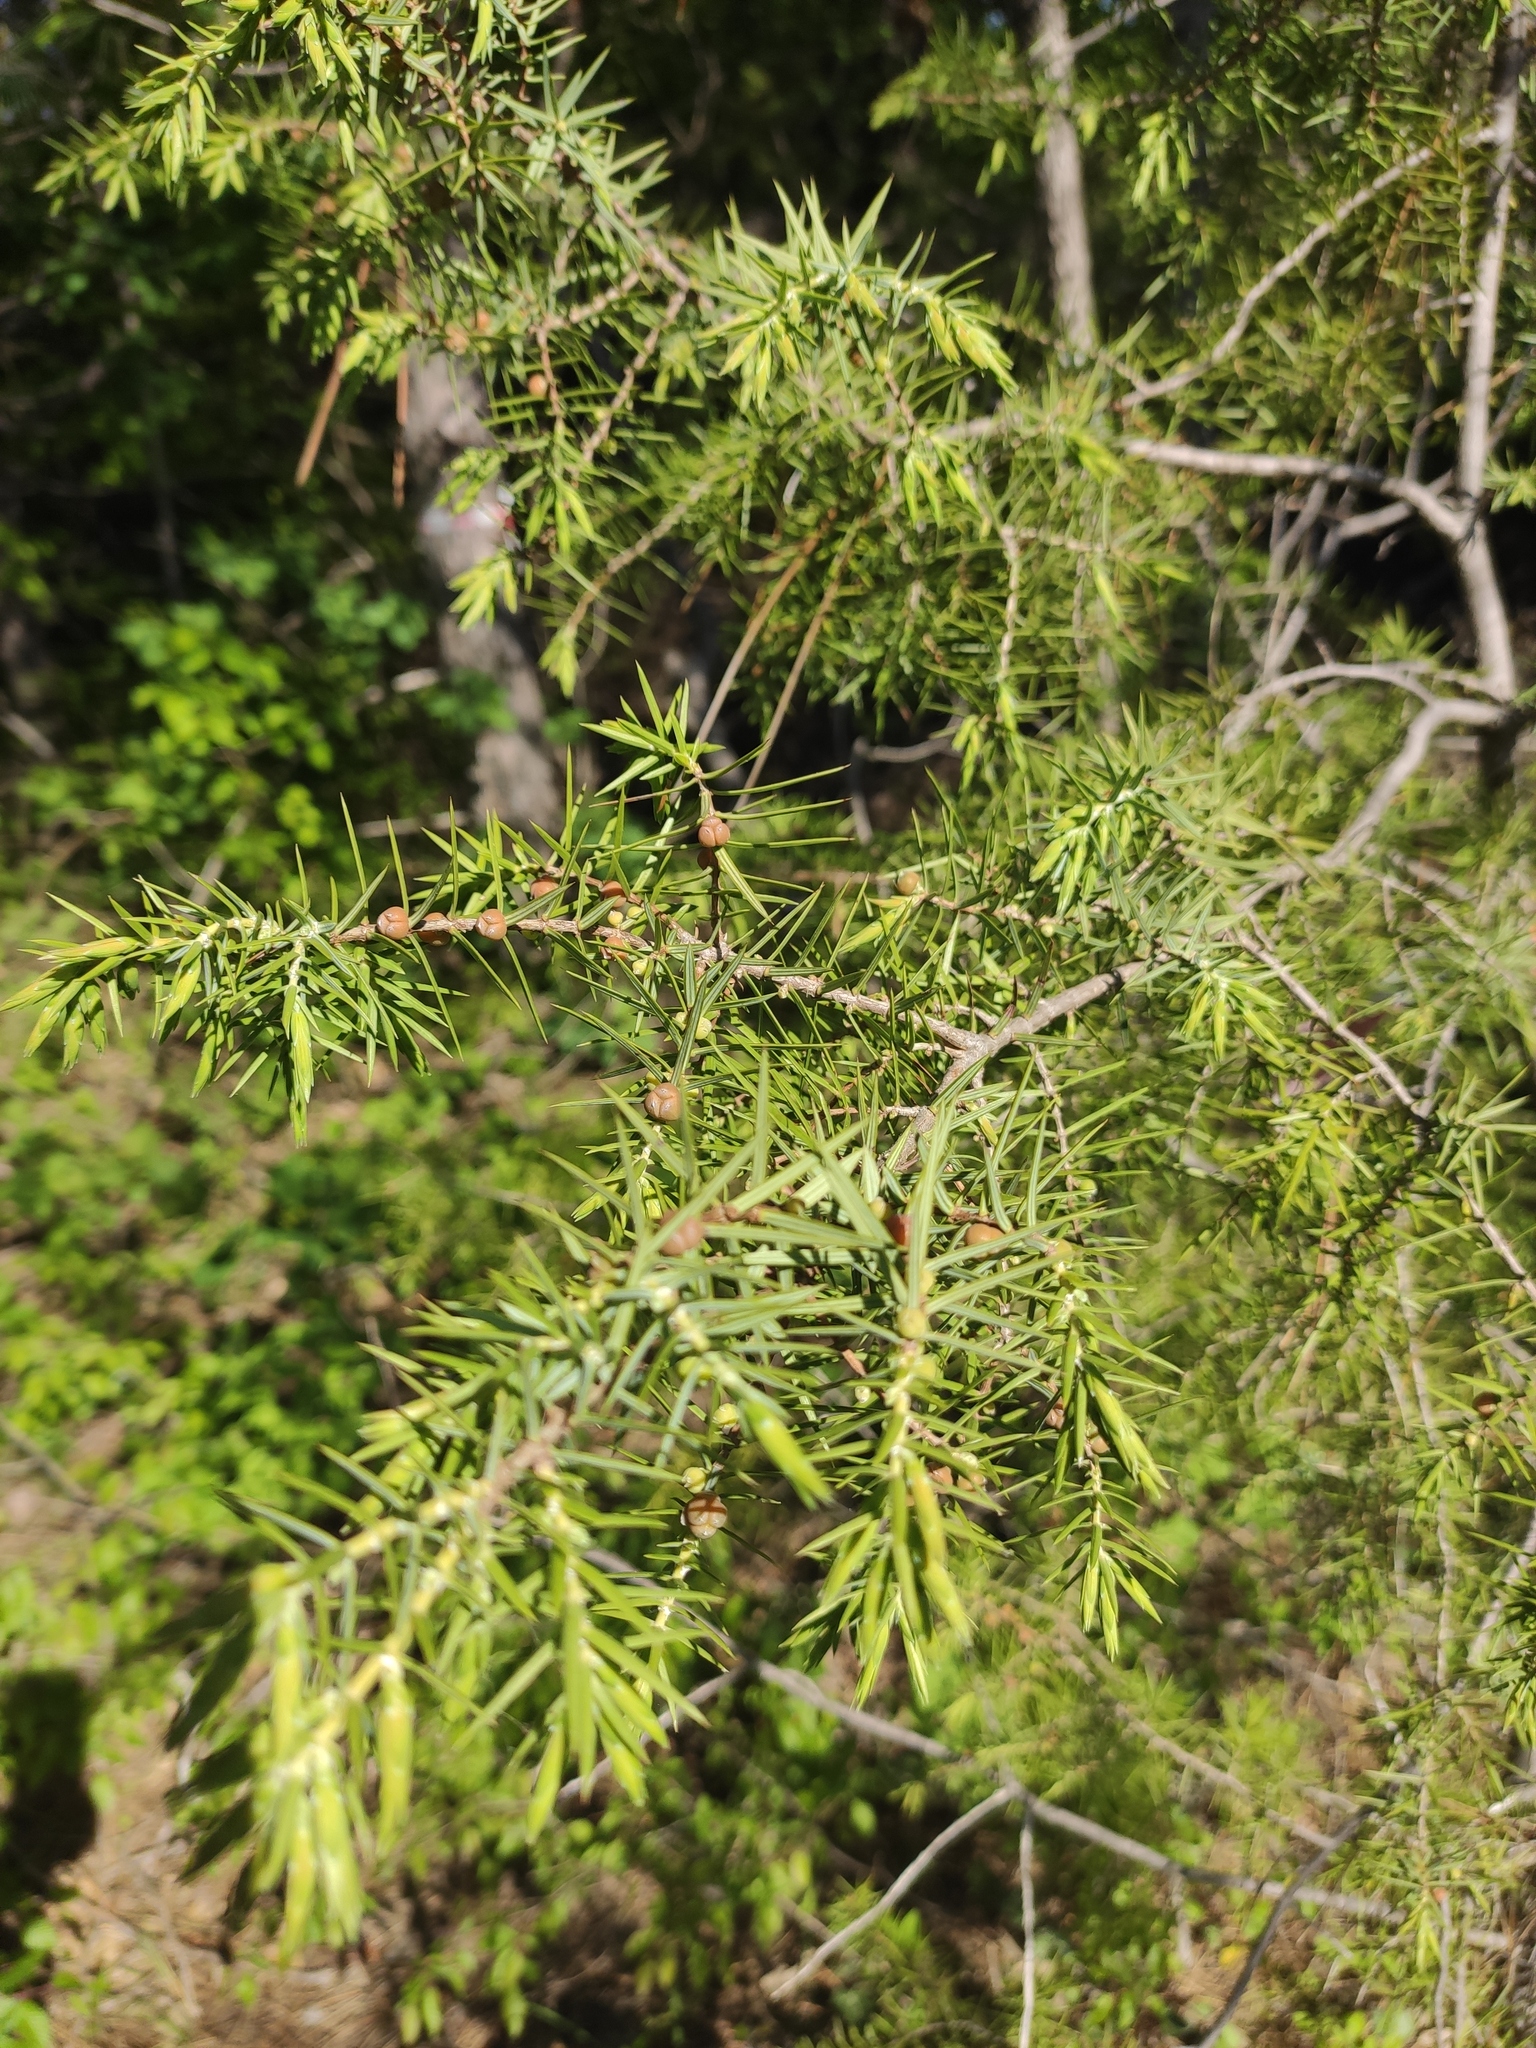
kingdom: Plantae
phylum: Tracheophyta
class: Pinopsida
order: Pinales
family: Cupressaceae
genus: Juniperus
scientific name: Juniperus oxycedrus
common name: Prickly juniper
